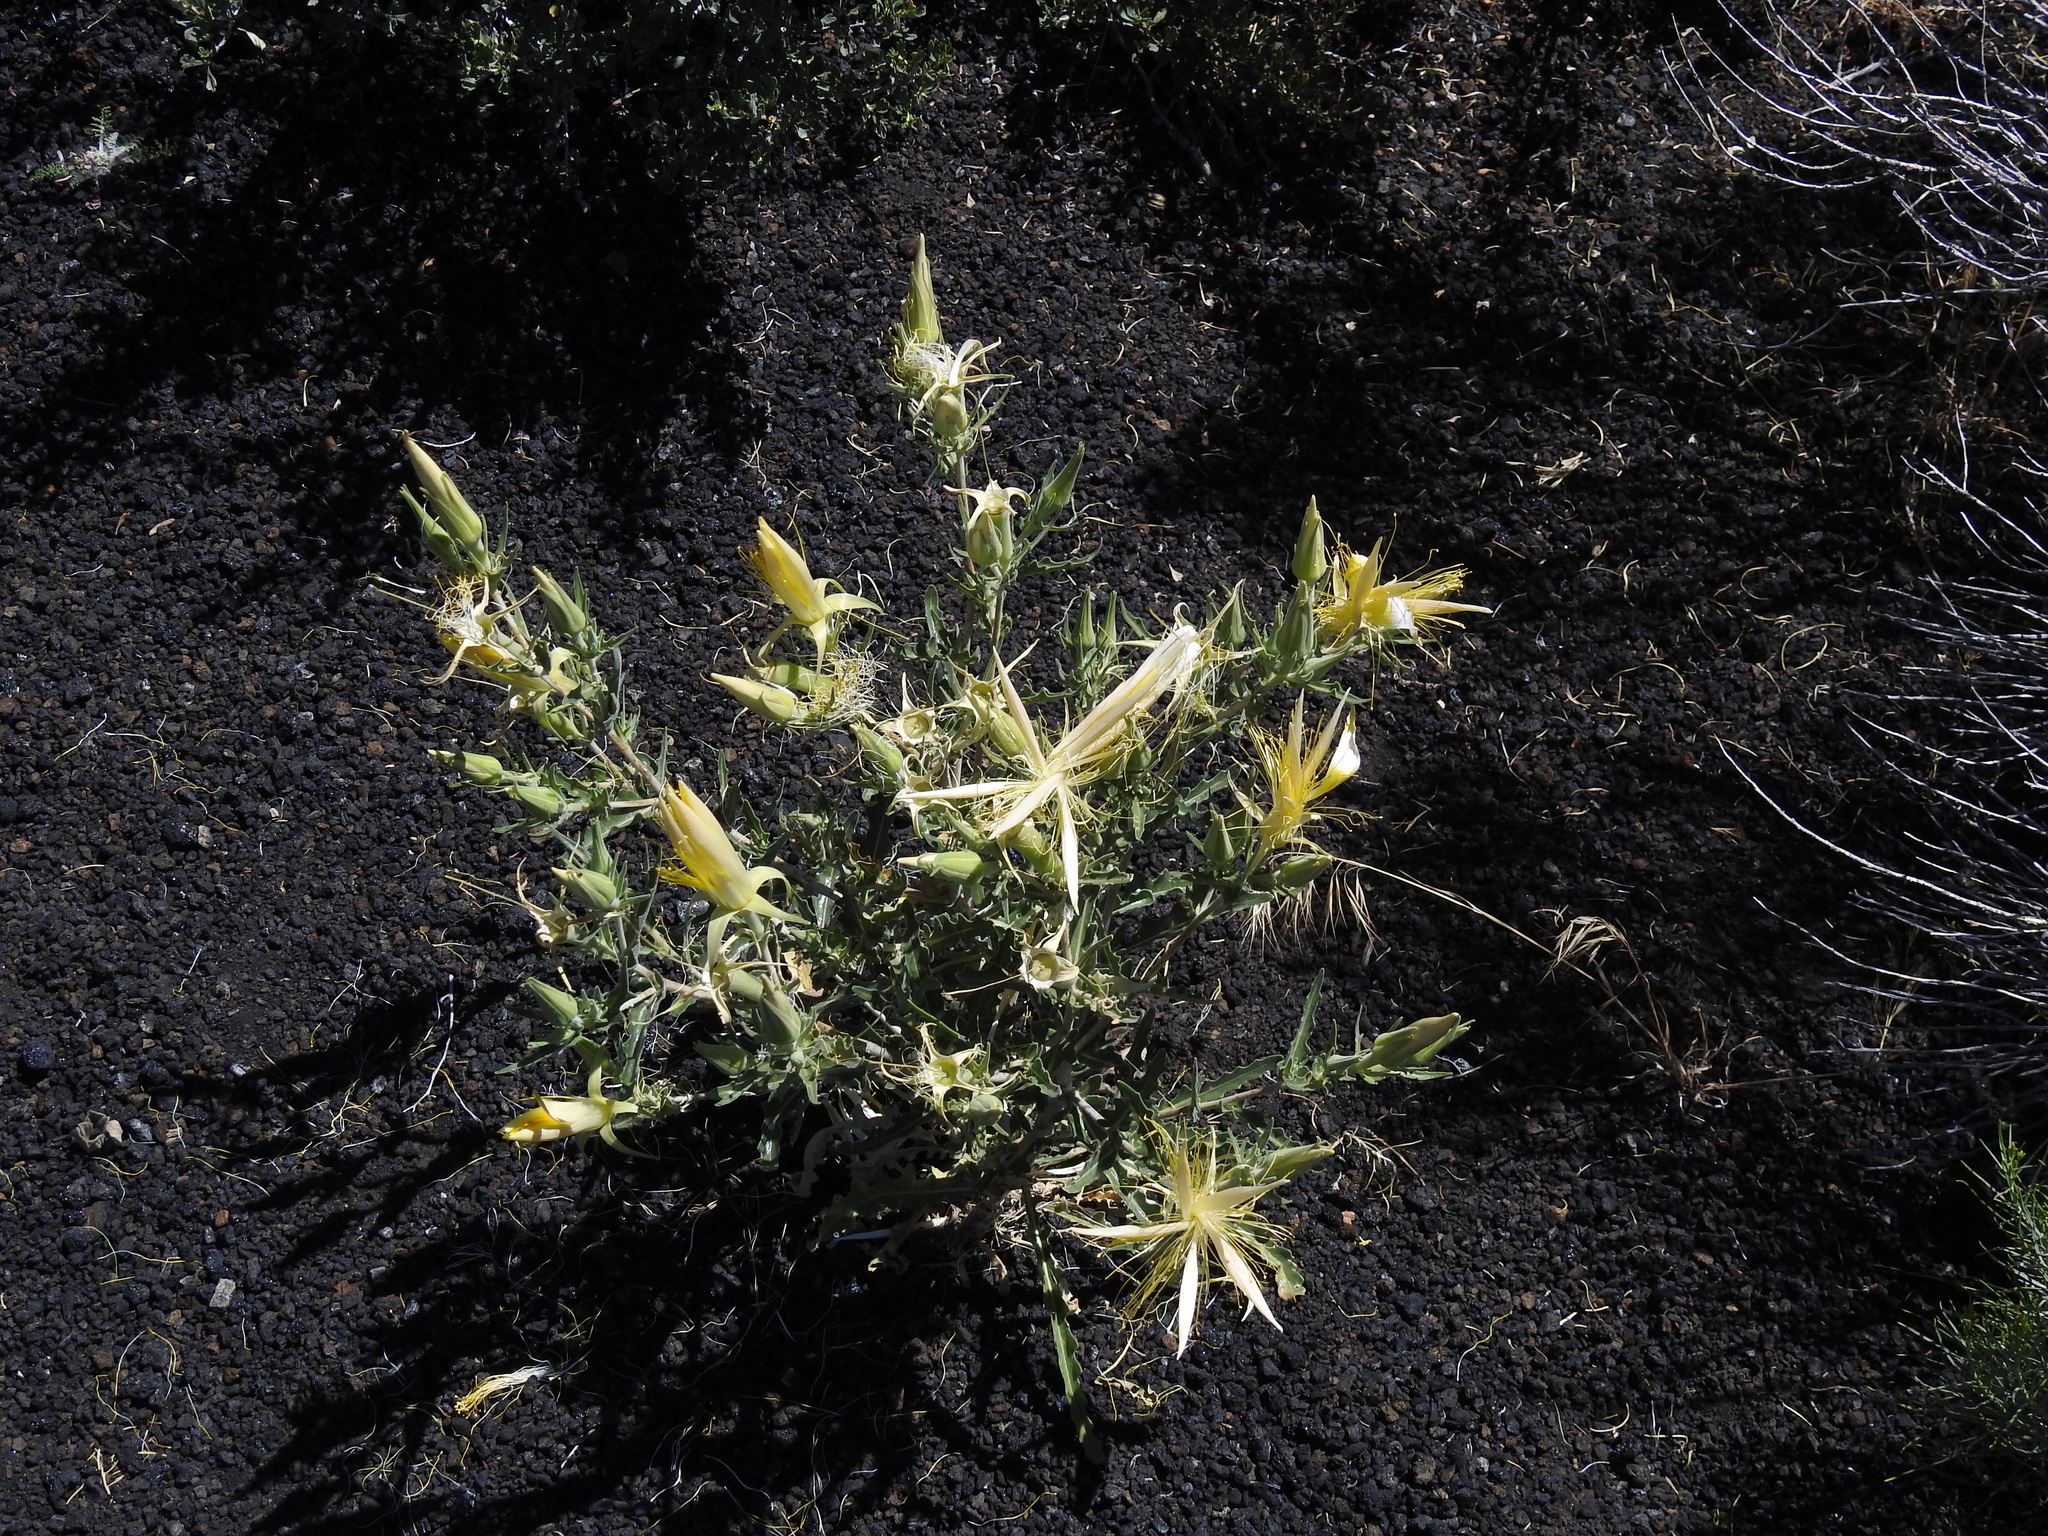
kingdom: Plantae
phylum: Tracheophyta
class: Magnoliopsida
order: Cornales
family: Loasaceae
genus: Mentzelia
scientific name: Mentzelia laevicaulis
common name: Smooth-stem blazingstar
